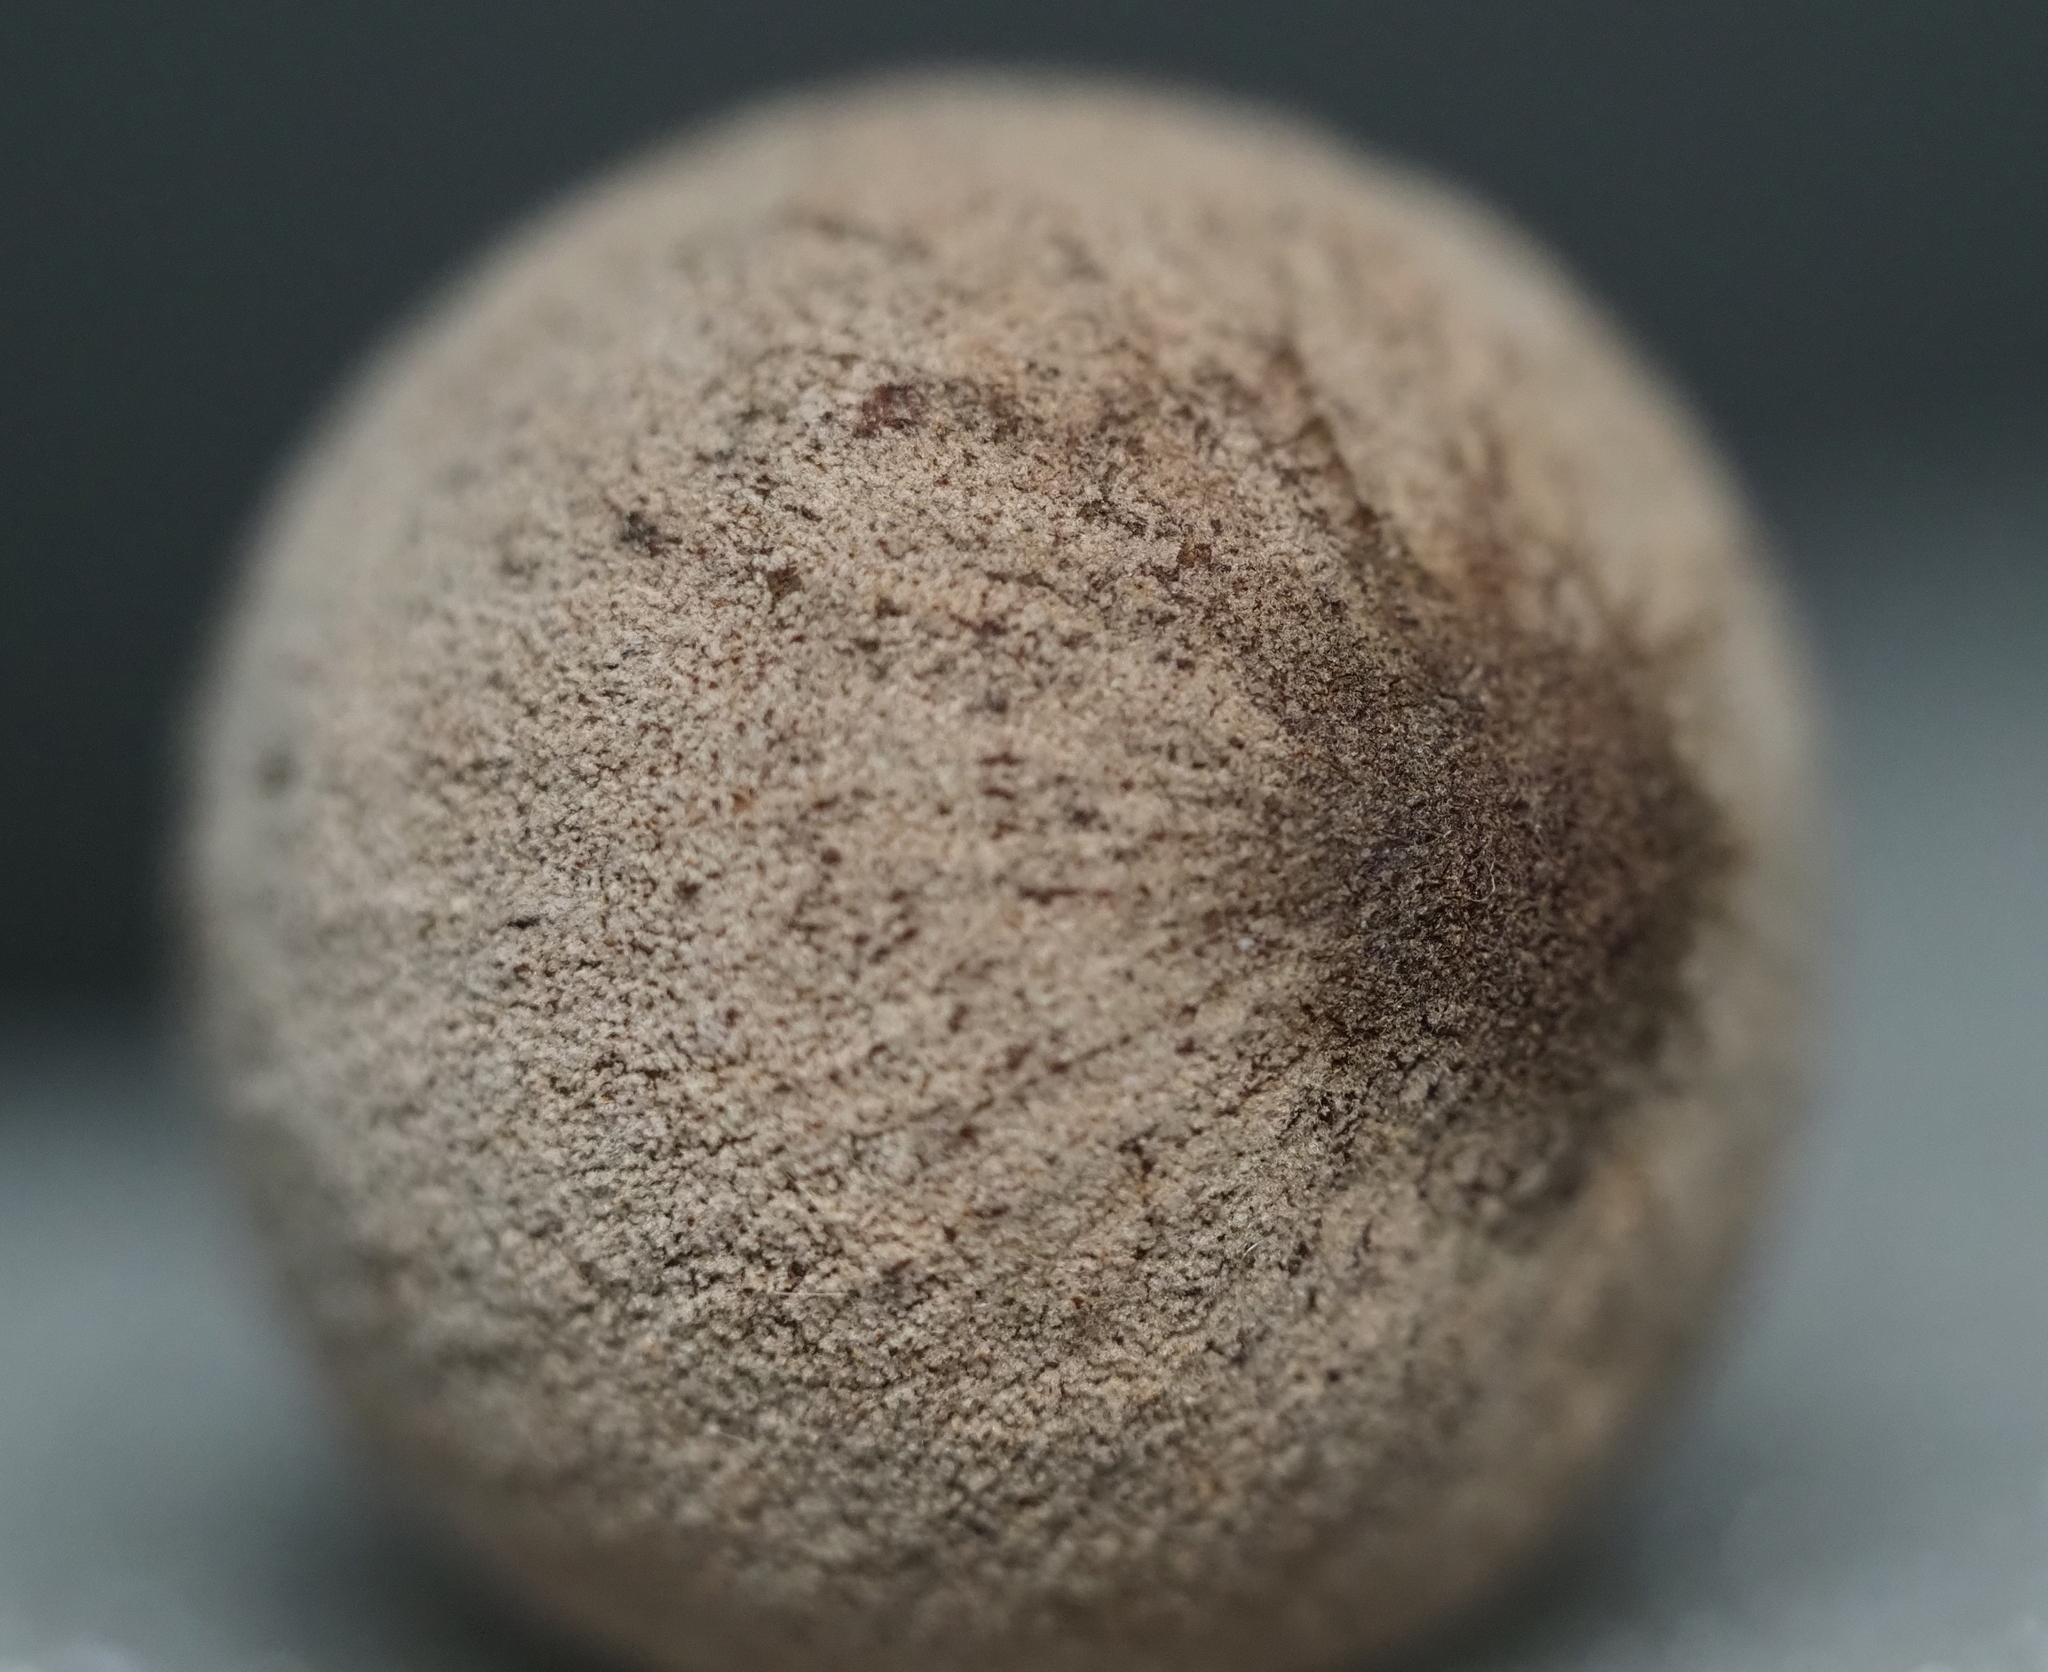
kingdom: Animalia
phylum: Arthropoda
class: Insecta
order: Hymenoptera
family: Cynipidae
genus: Disholcaspis
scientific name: Disholcaspis
